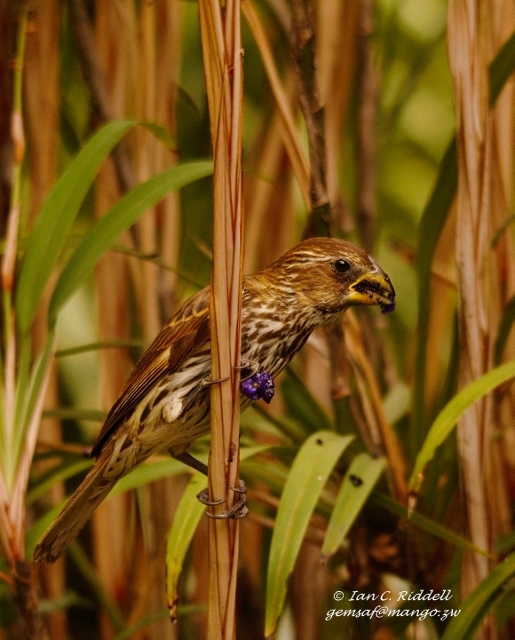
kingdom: Animalia
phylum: Chordata
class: Aves
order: Passeriformes
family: Ploceidae
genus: Amblyospiza
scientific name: Amblyospiza albifrons
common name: Thick-billed weaver
